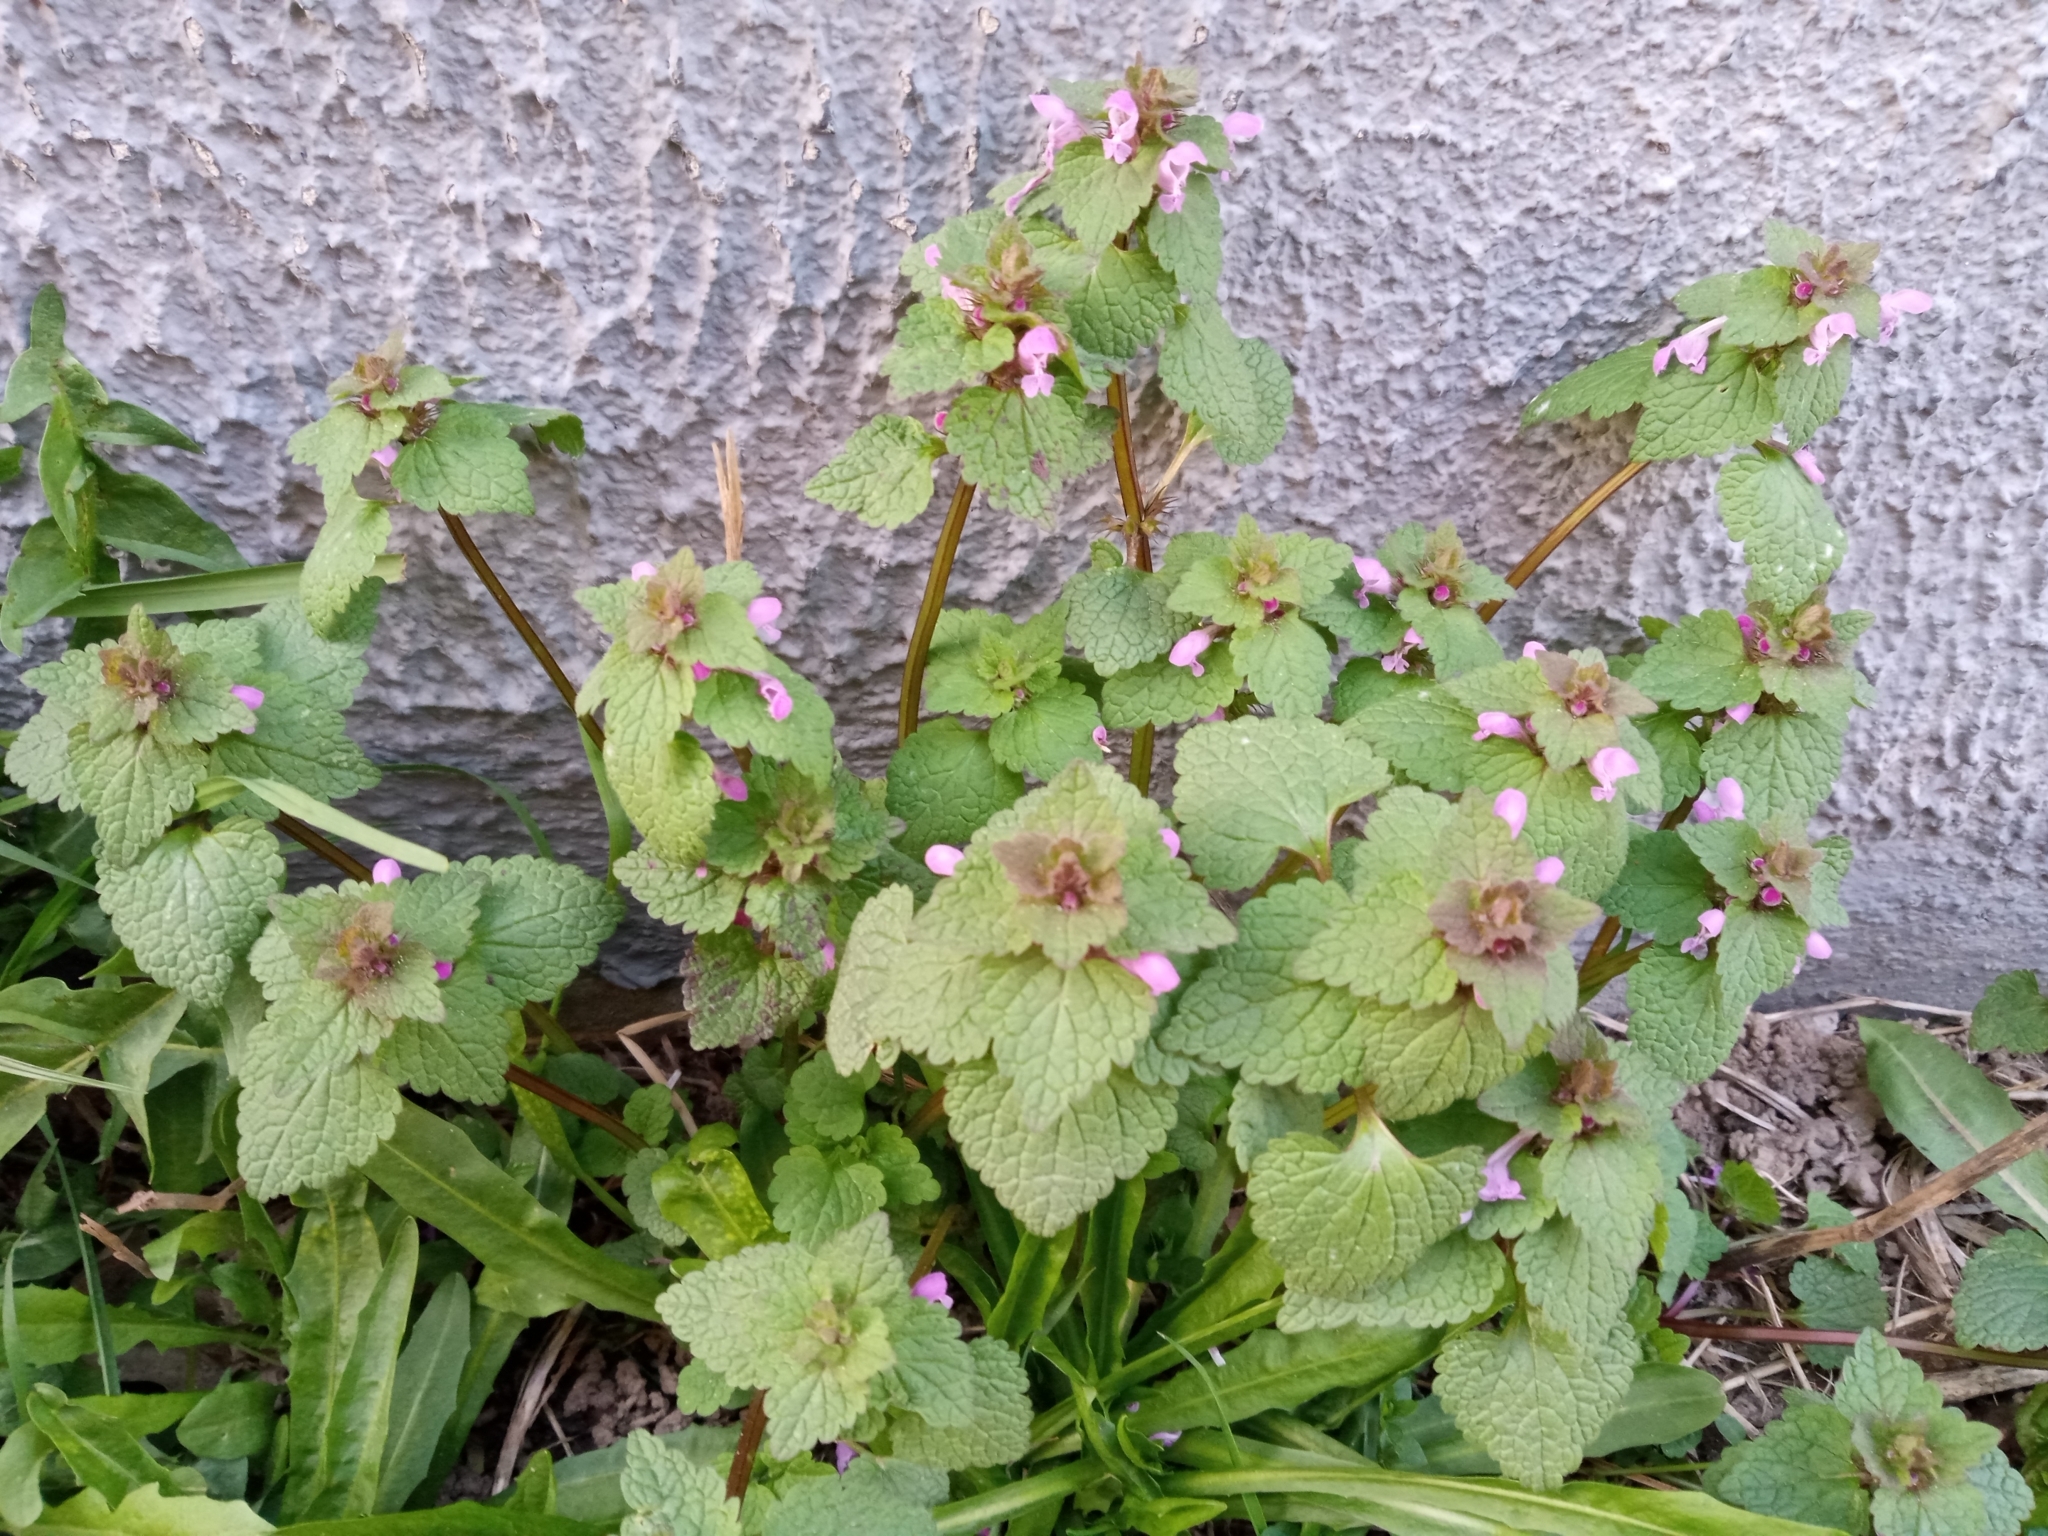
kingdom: Plantae
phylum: Tracheophyta
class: Magnoliopsida
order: Lamiales
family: Lamiaceae
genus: Lamium
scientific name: Lamium purpureum
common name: Red dead-nettle
